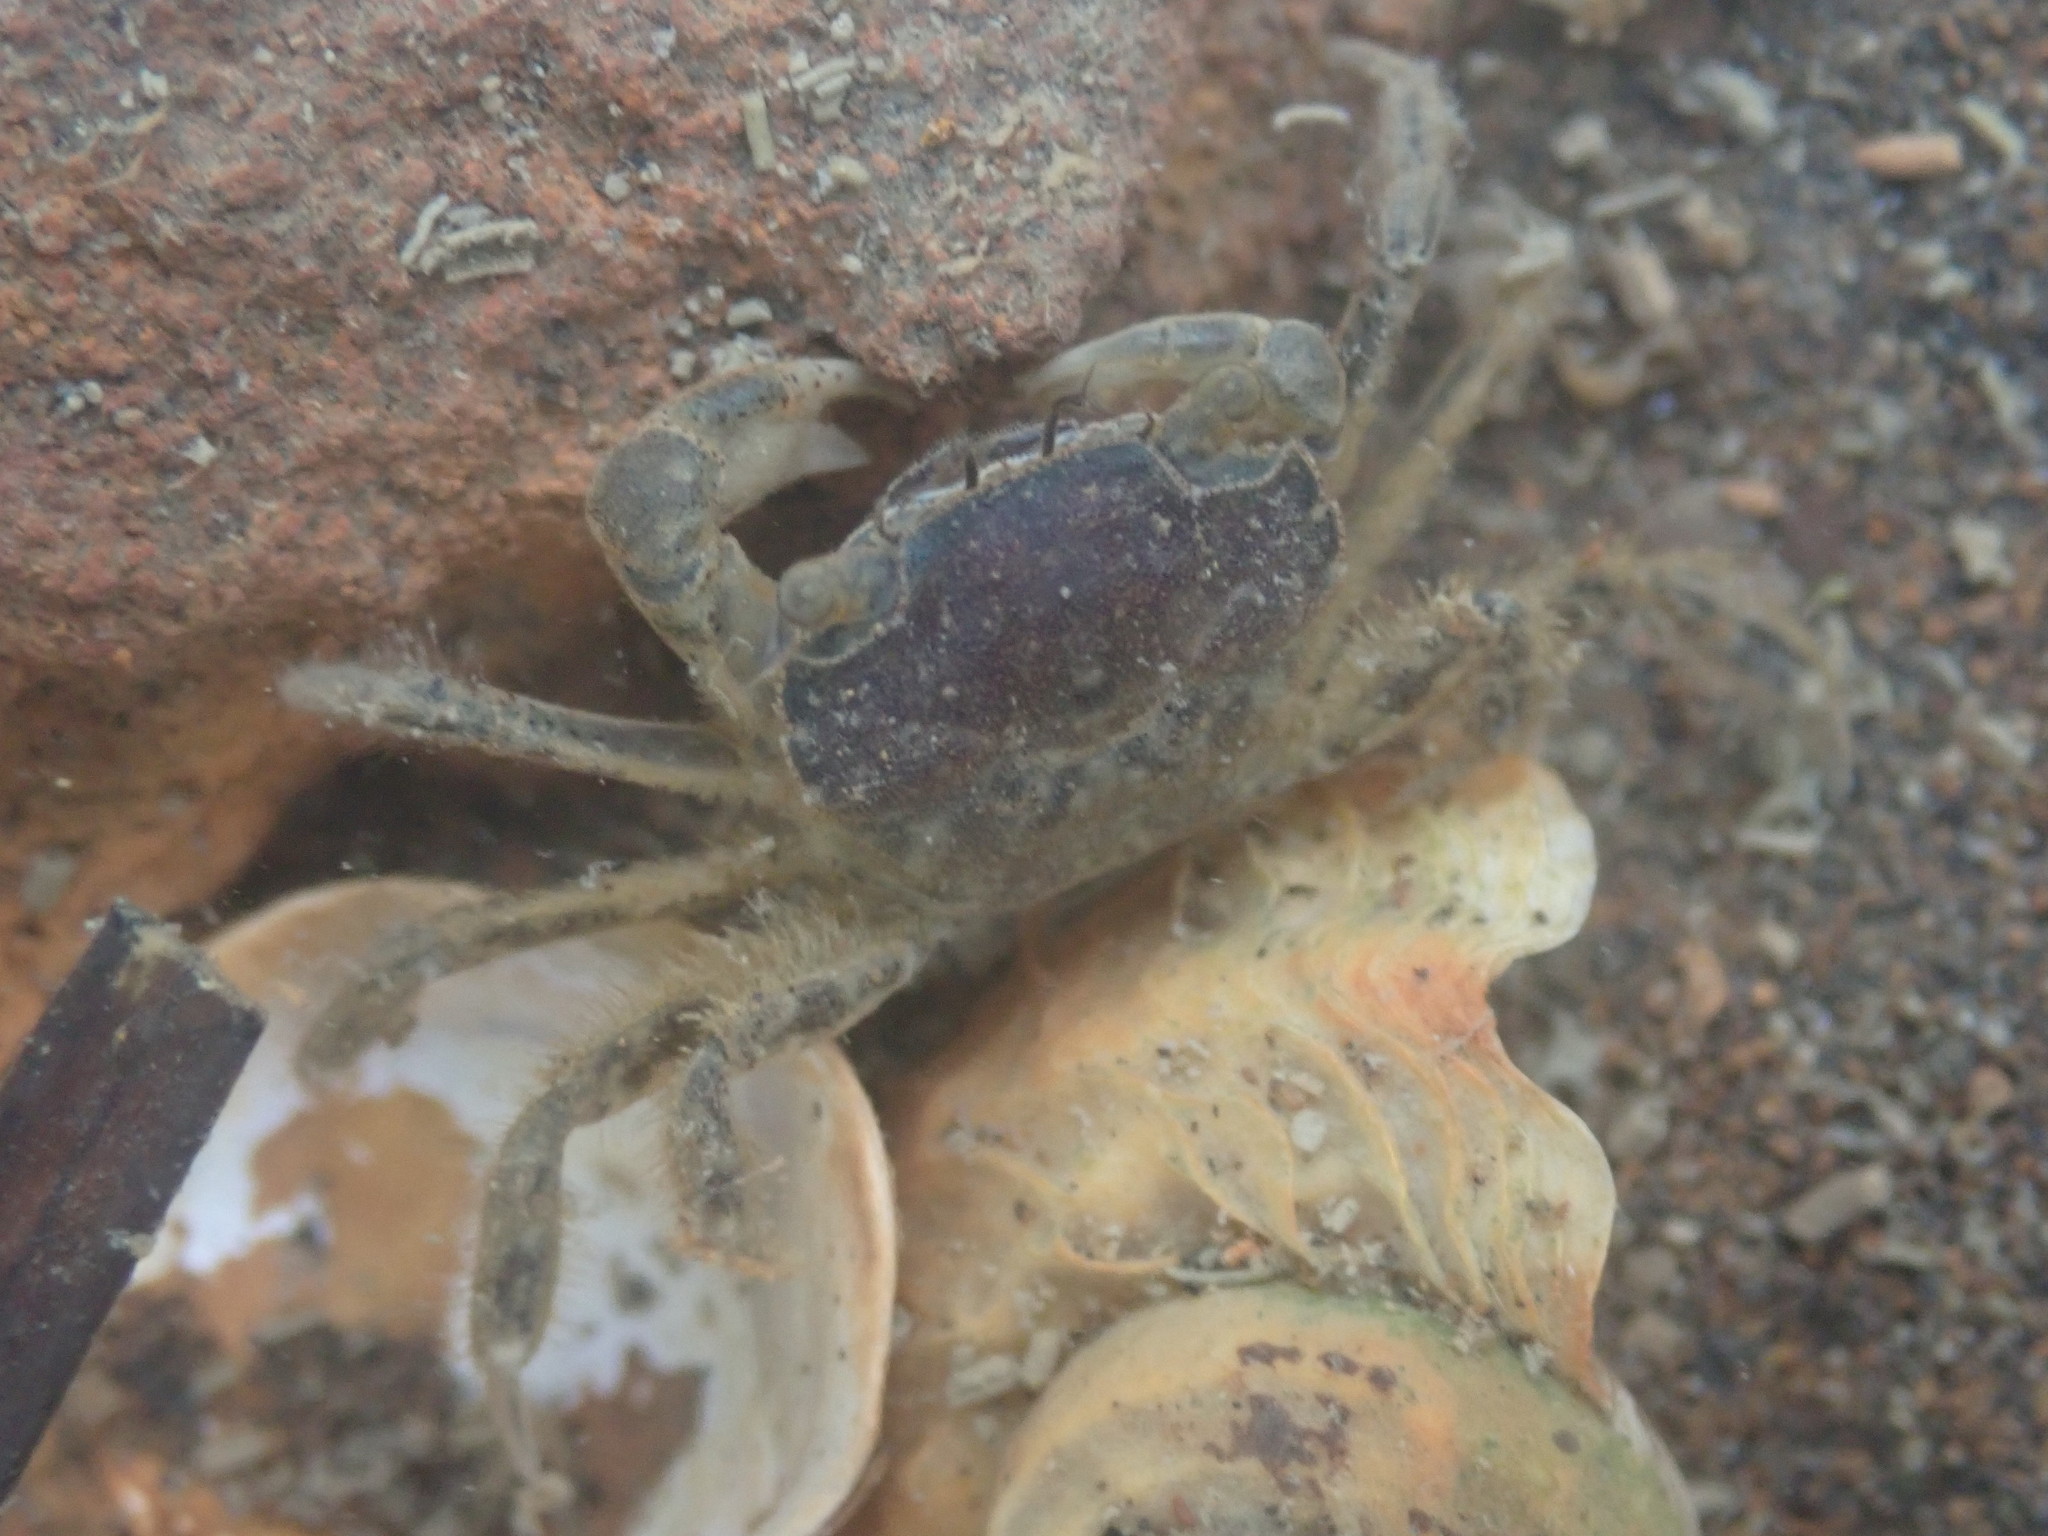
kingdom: Animalia
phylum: Arthropoda
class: Malacostraca
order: Decapoda
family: Varunidae
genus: Hemigrapsus
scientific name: Hemigrapsus crenulatus
